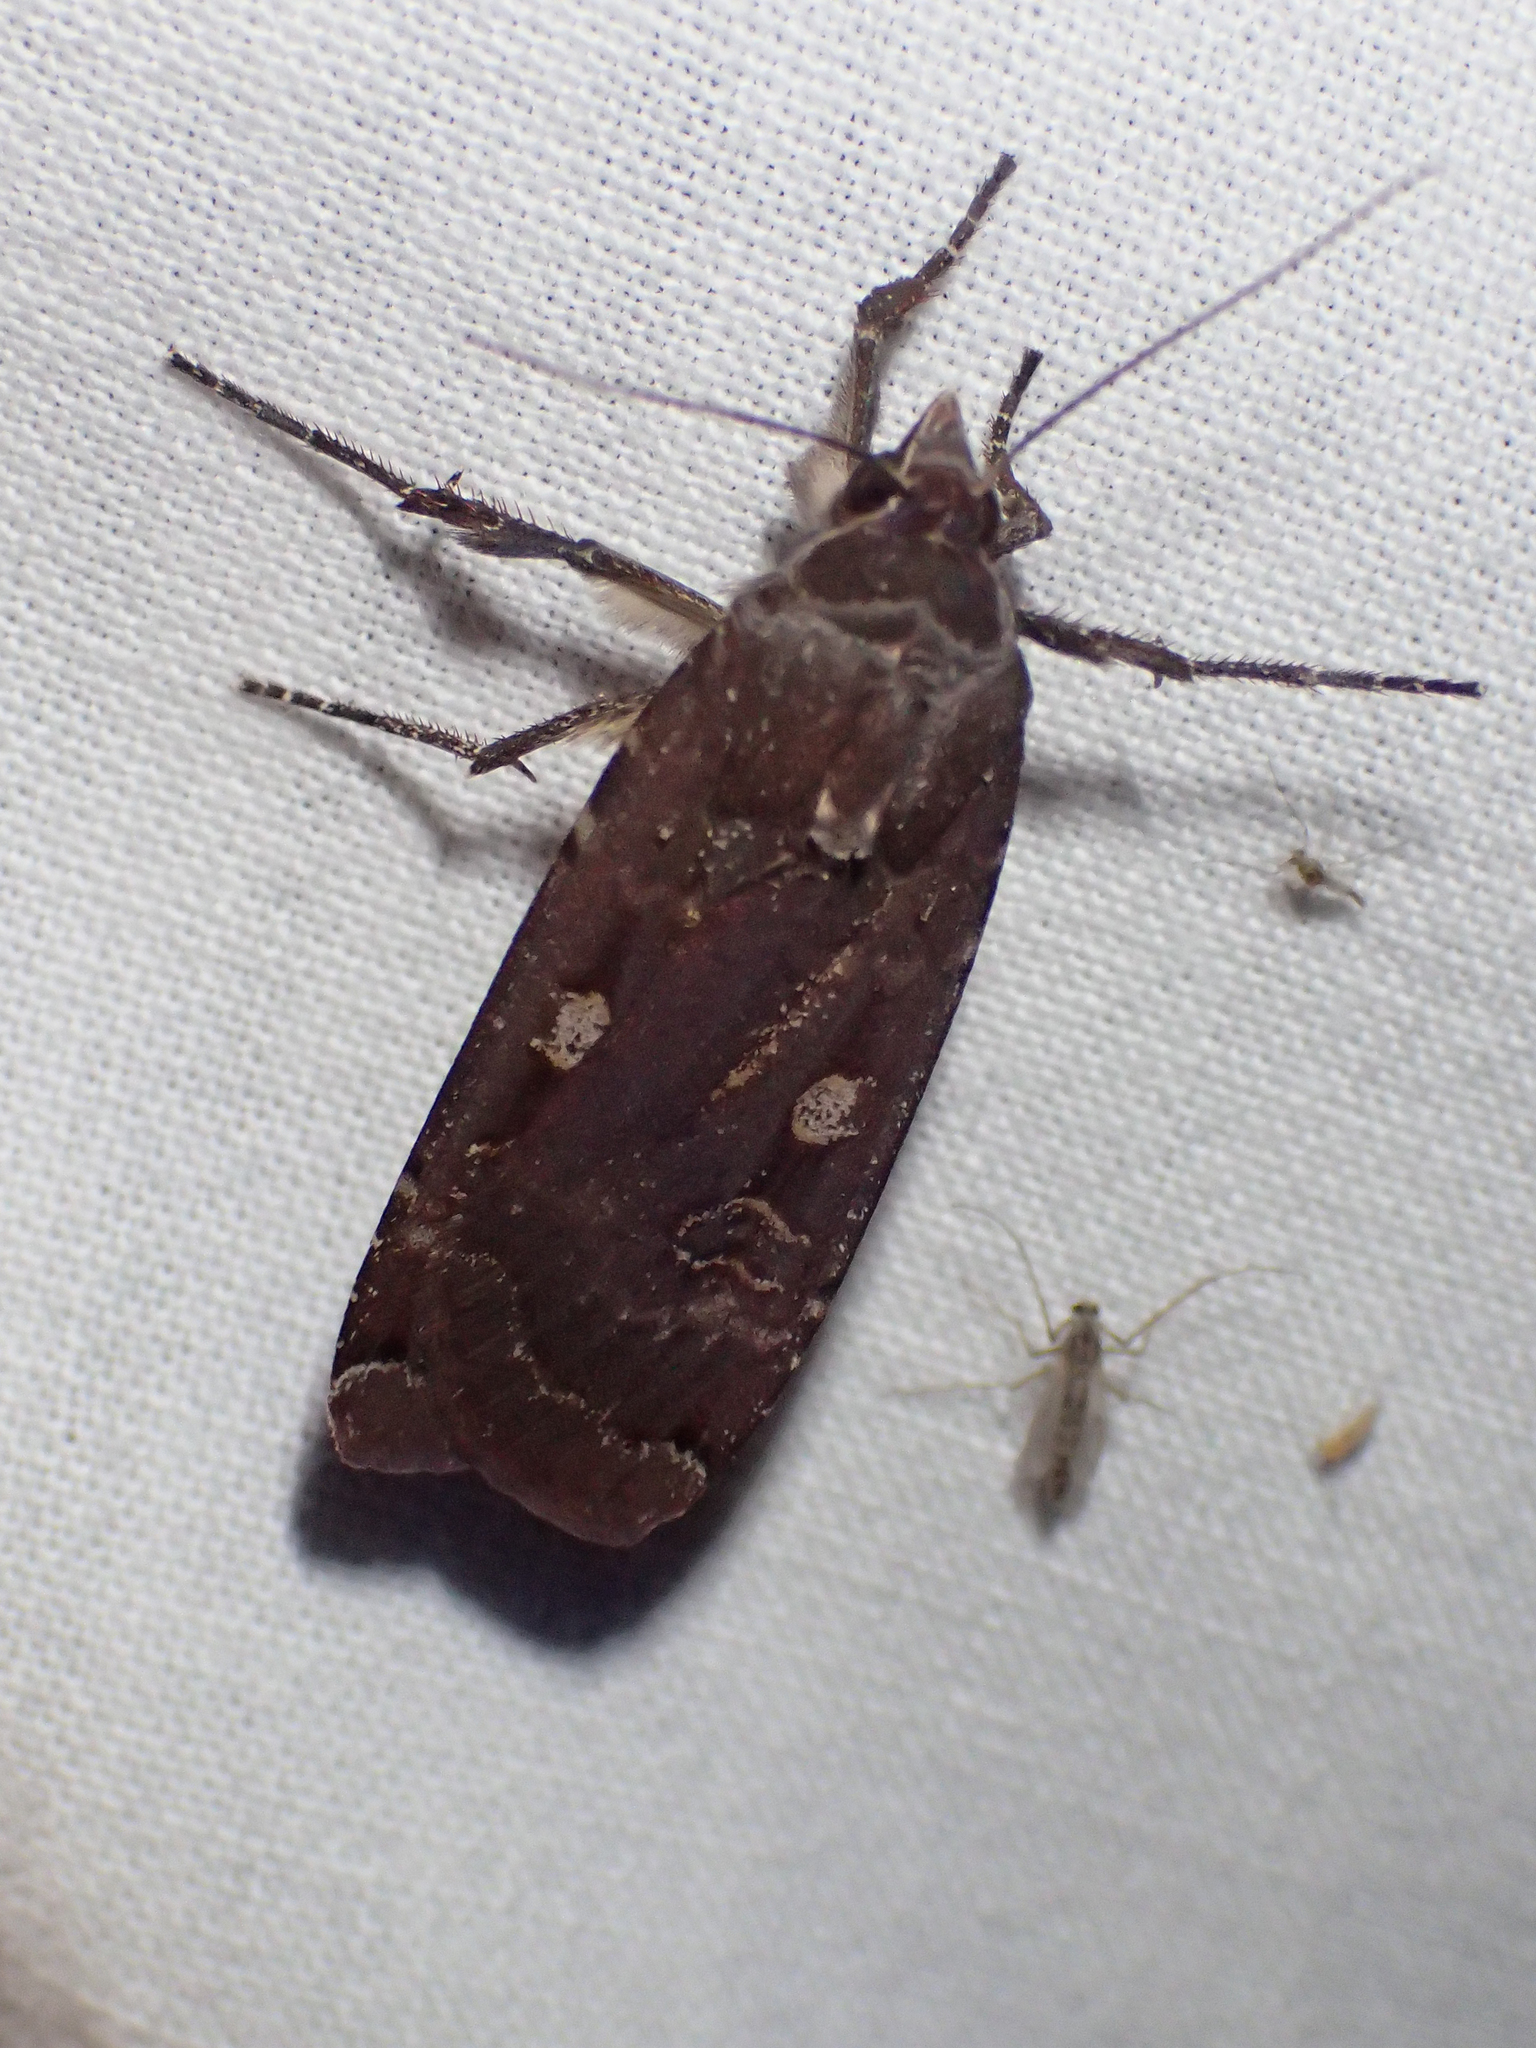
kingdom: Animalia
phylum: Arthropoda
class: Insecta
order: Lepidoptera
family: Noctuidae
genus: Noctua
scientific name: Noctua pronuba
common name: Large yellow underwing
